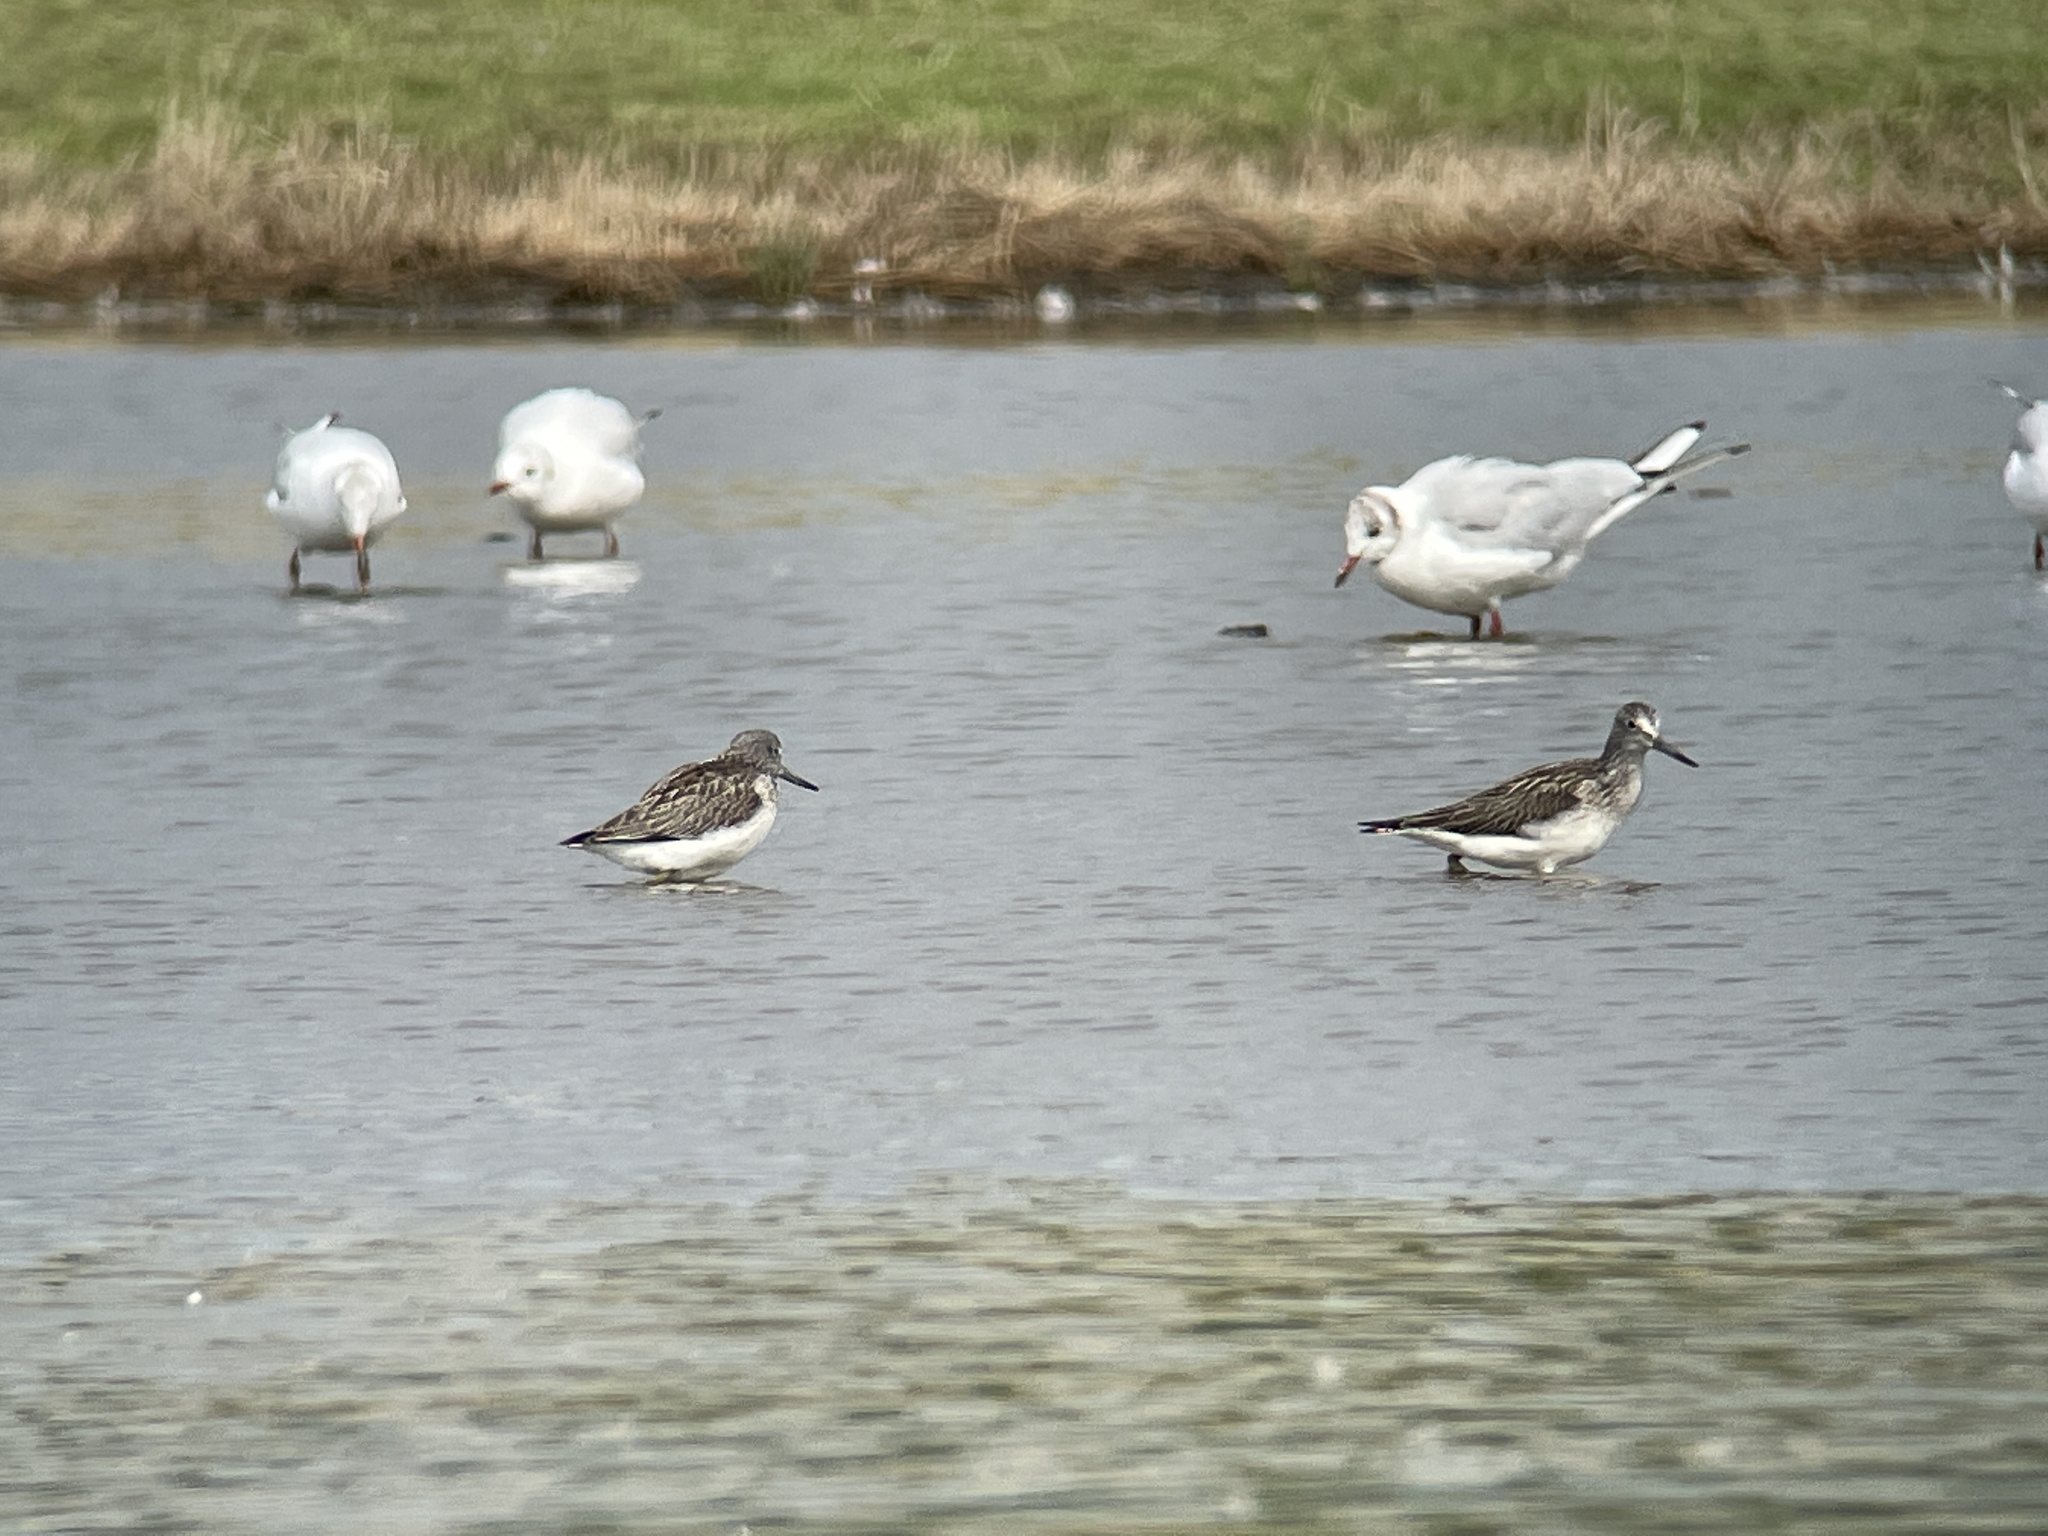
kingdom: Animalia
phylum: Chordata
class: Aves
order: Charadriiformes
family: Scolopacidae
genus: Tringa
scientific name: Tringa nebularia
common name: Common greenshank
